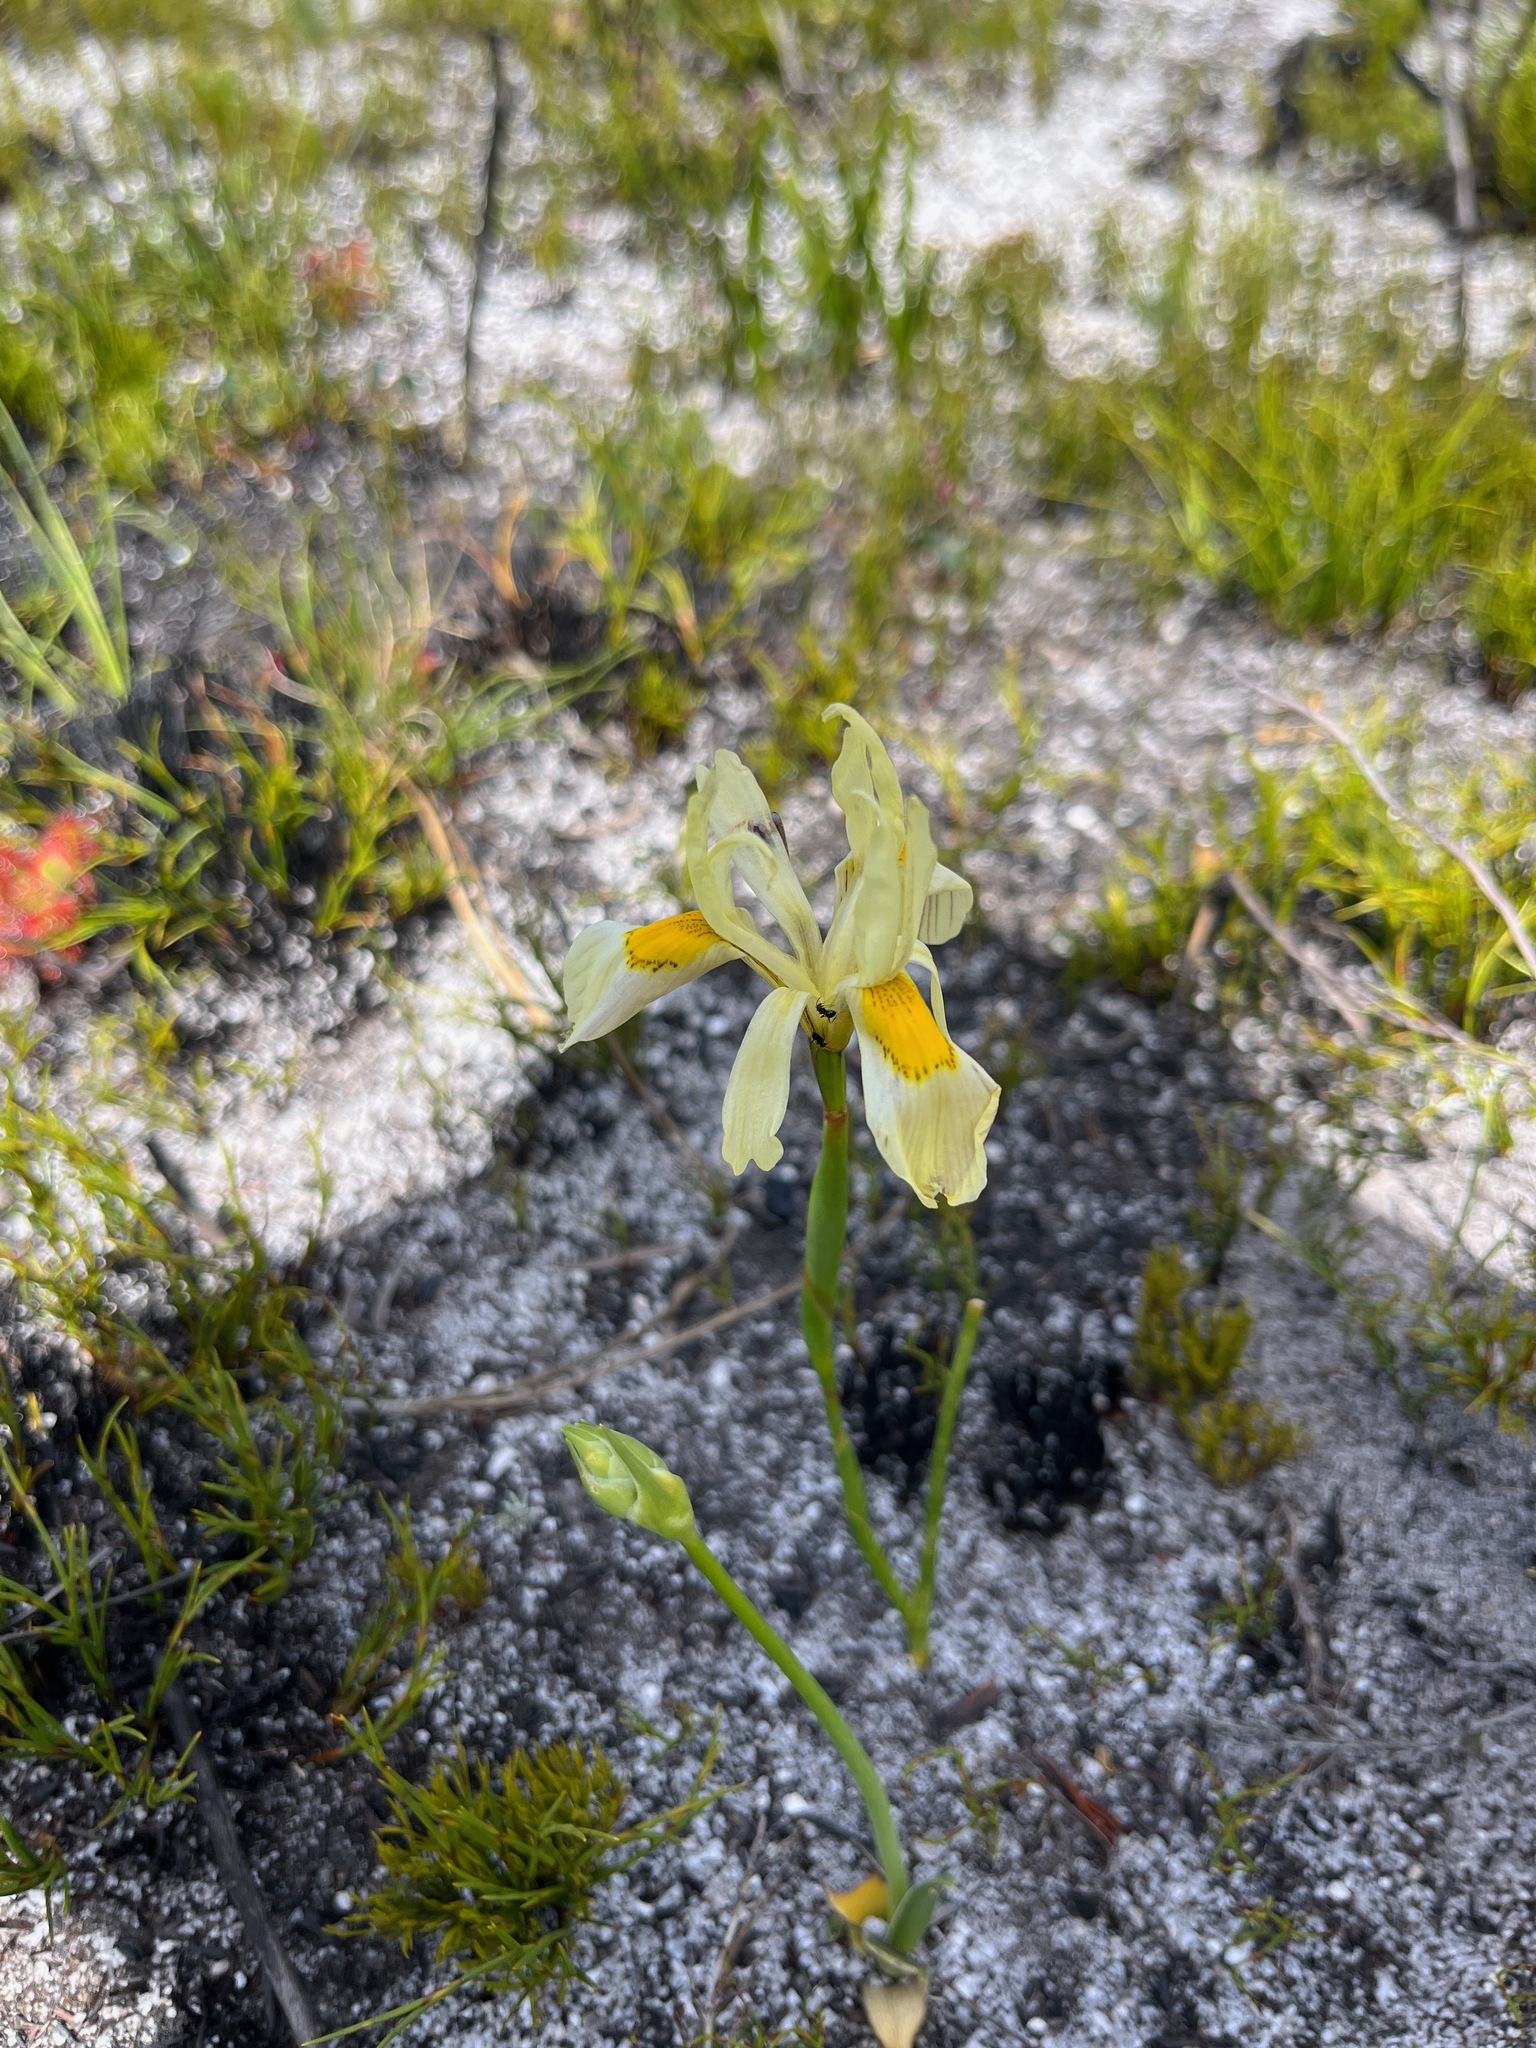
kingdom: Plantae
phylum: Tracheophyta
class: Liliopsida
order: Asparagales
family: Iridaceae
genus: Moraea
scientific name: Moraea anomala
